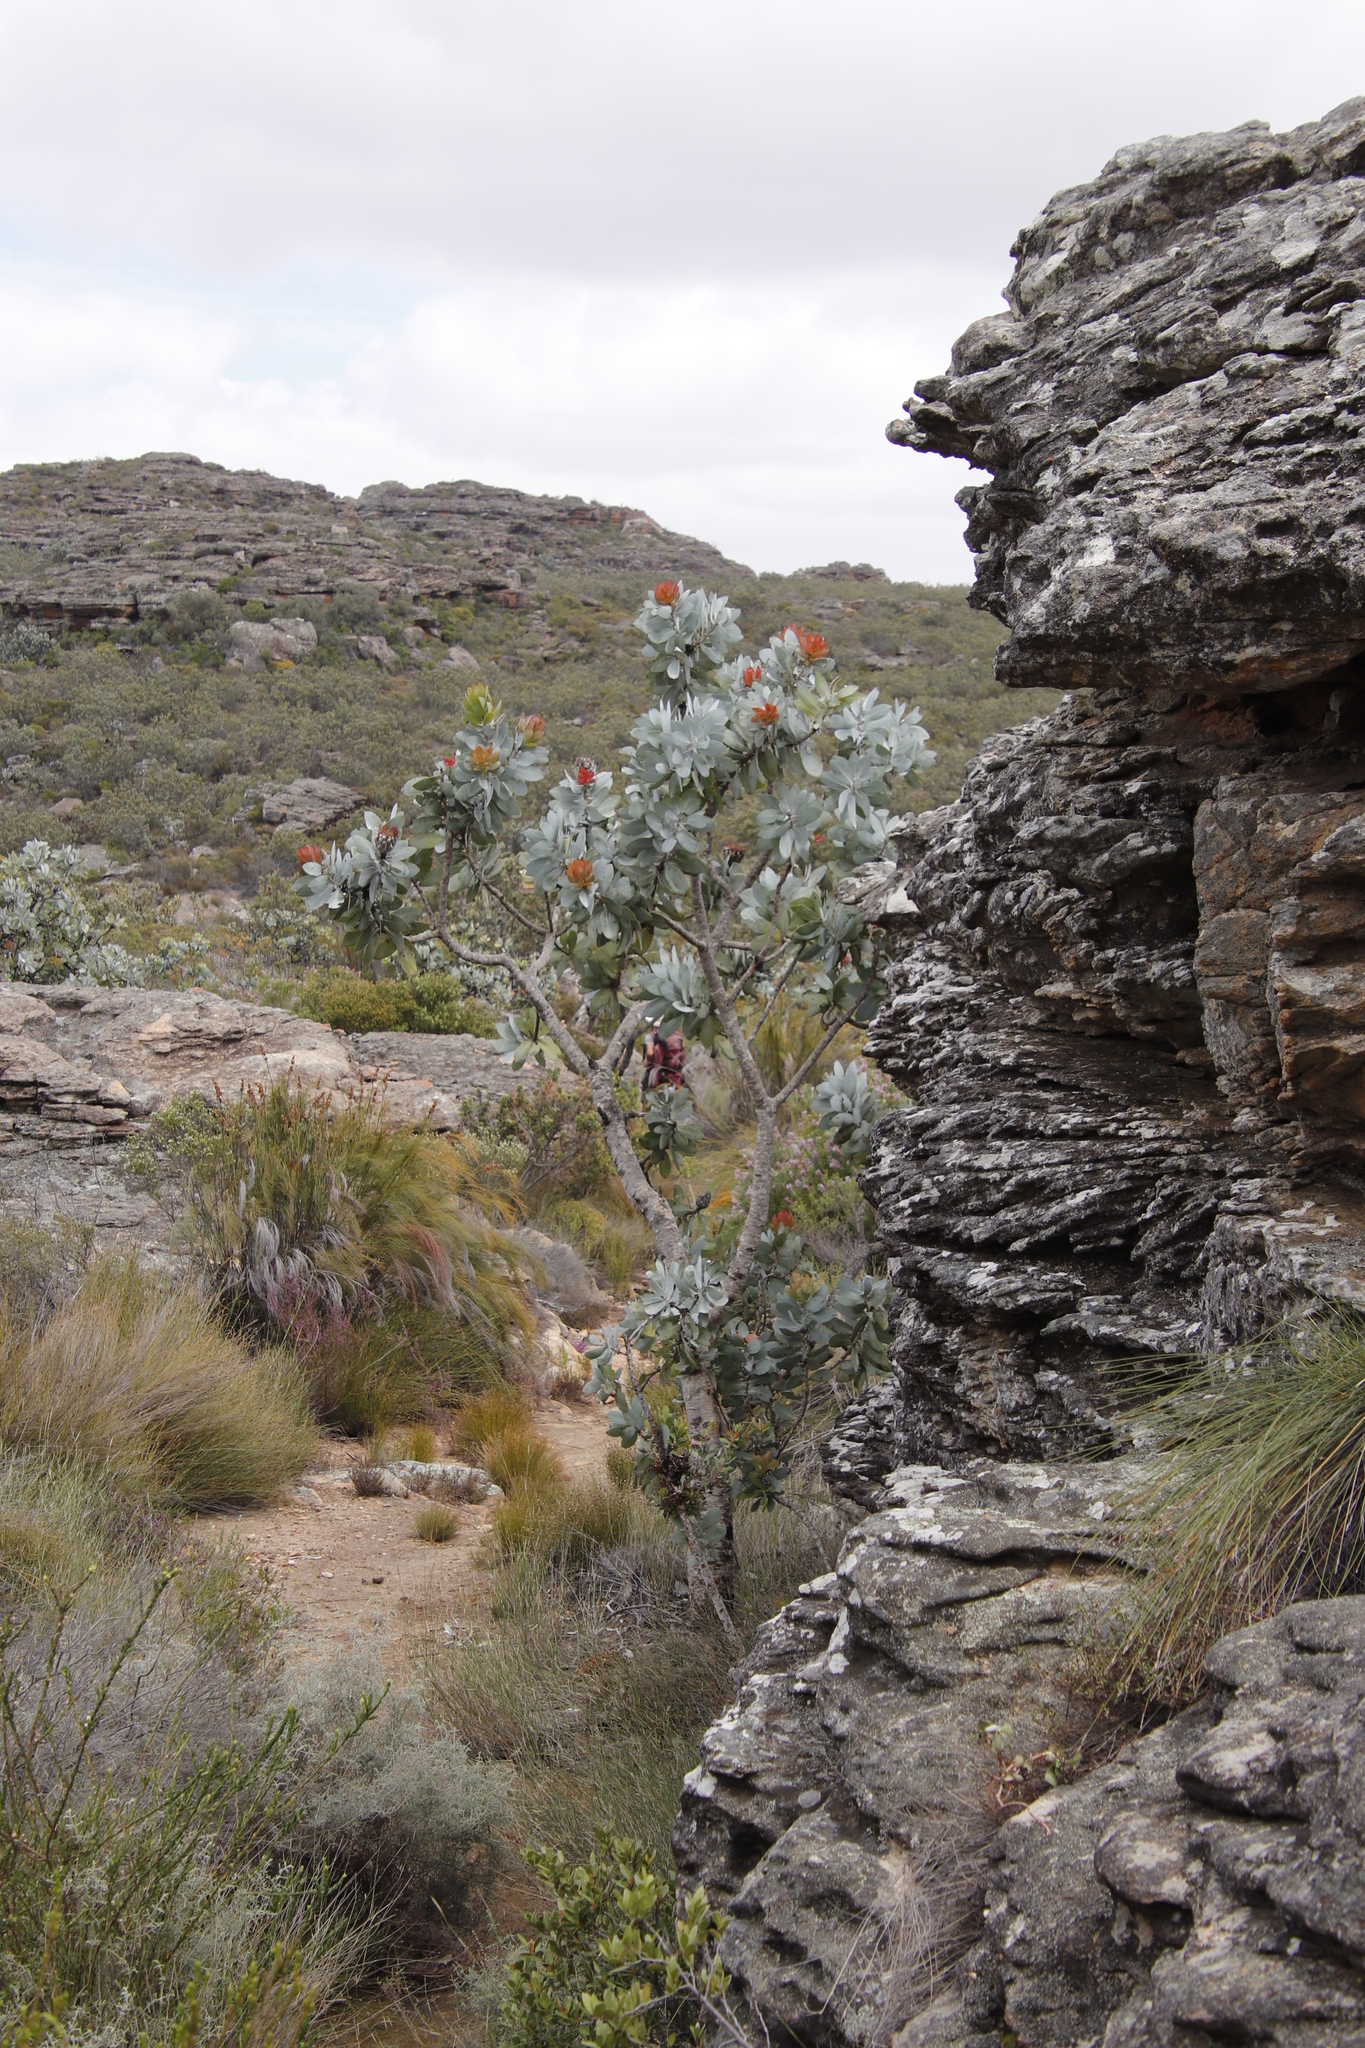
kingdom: Plantae
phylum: Tracheophyta
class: Magnoliopsida
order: Proteales
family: Proteaceae
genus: Protea
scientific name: Protea nitida
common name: Tree protea
